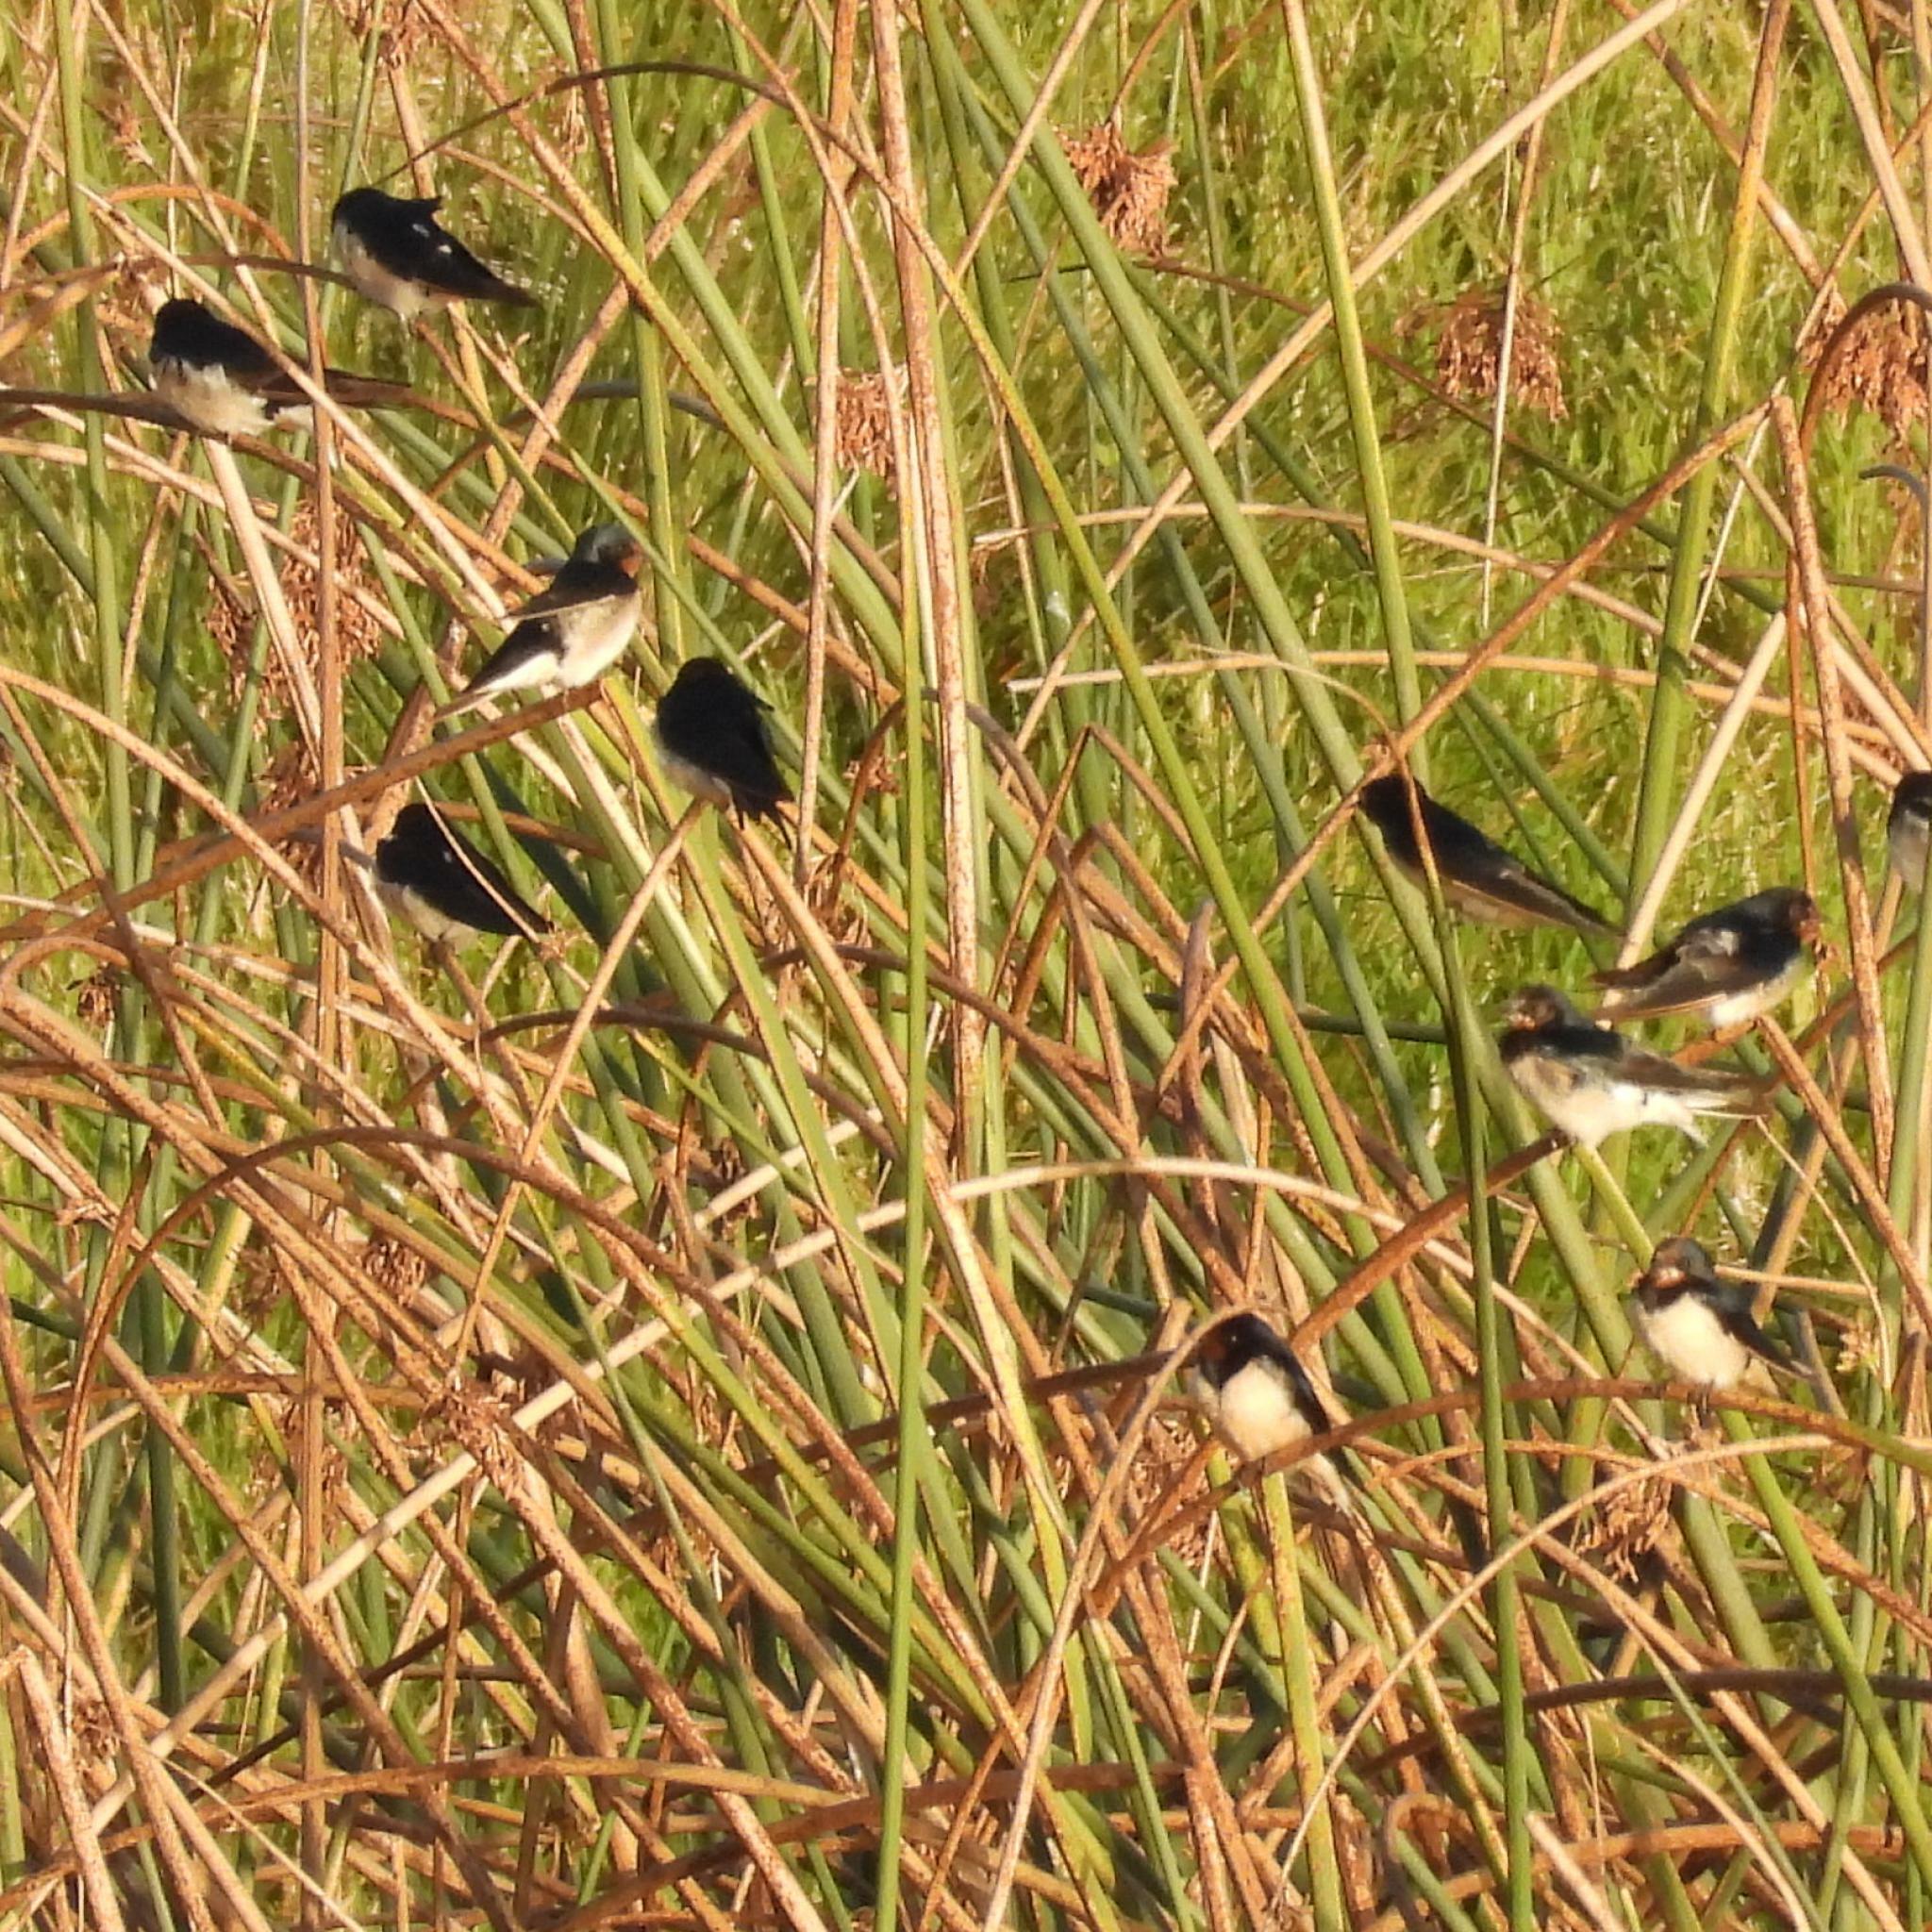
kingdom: Animalia
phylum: Chordata
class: Aves
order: Passeriformes
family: Hirundinidae
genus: Hirundo
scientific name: Hirundo rustica
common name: Barn swallow
